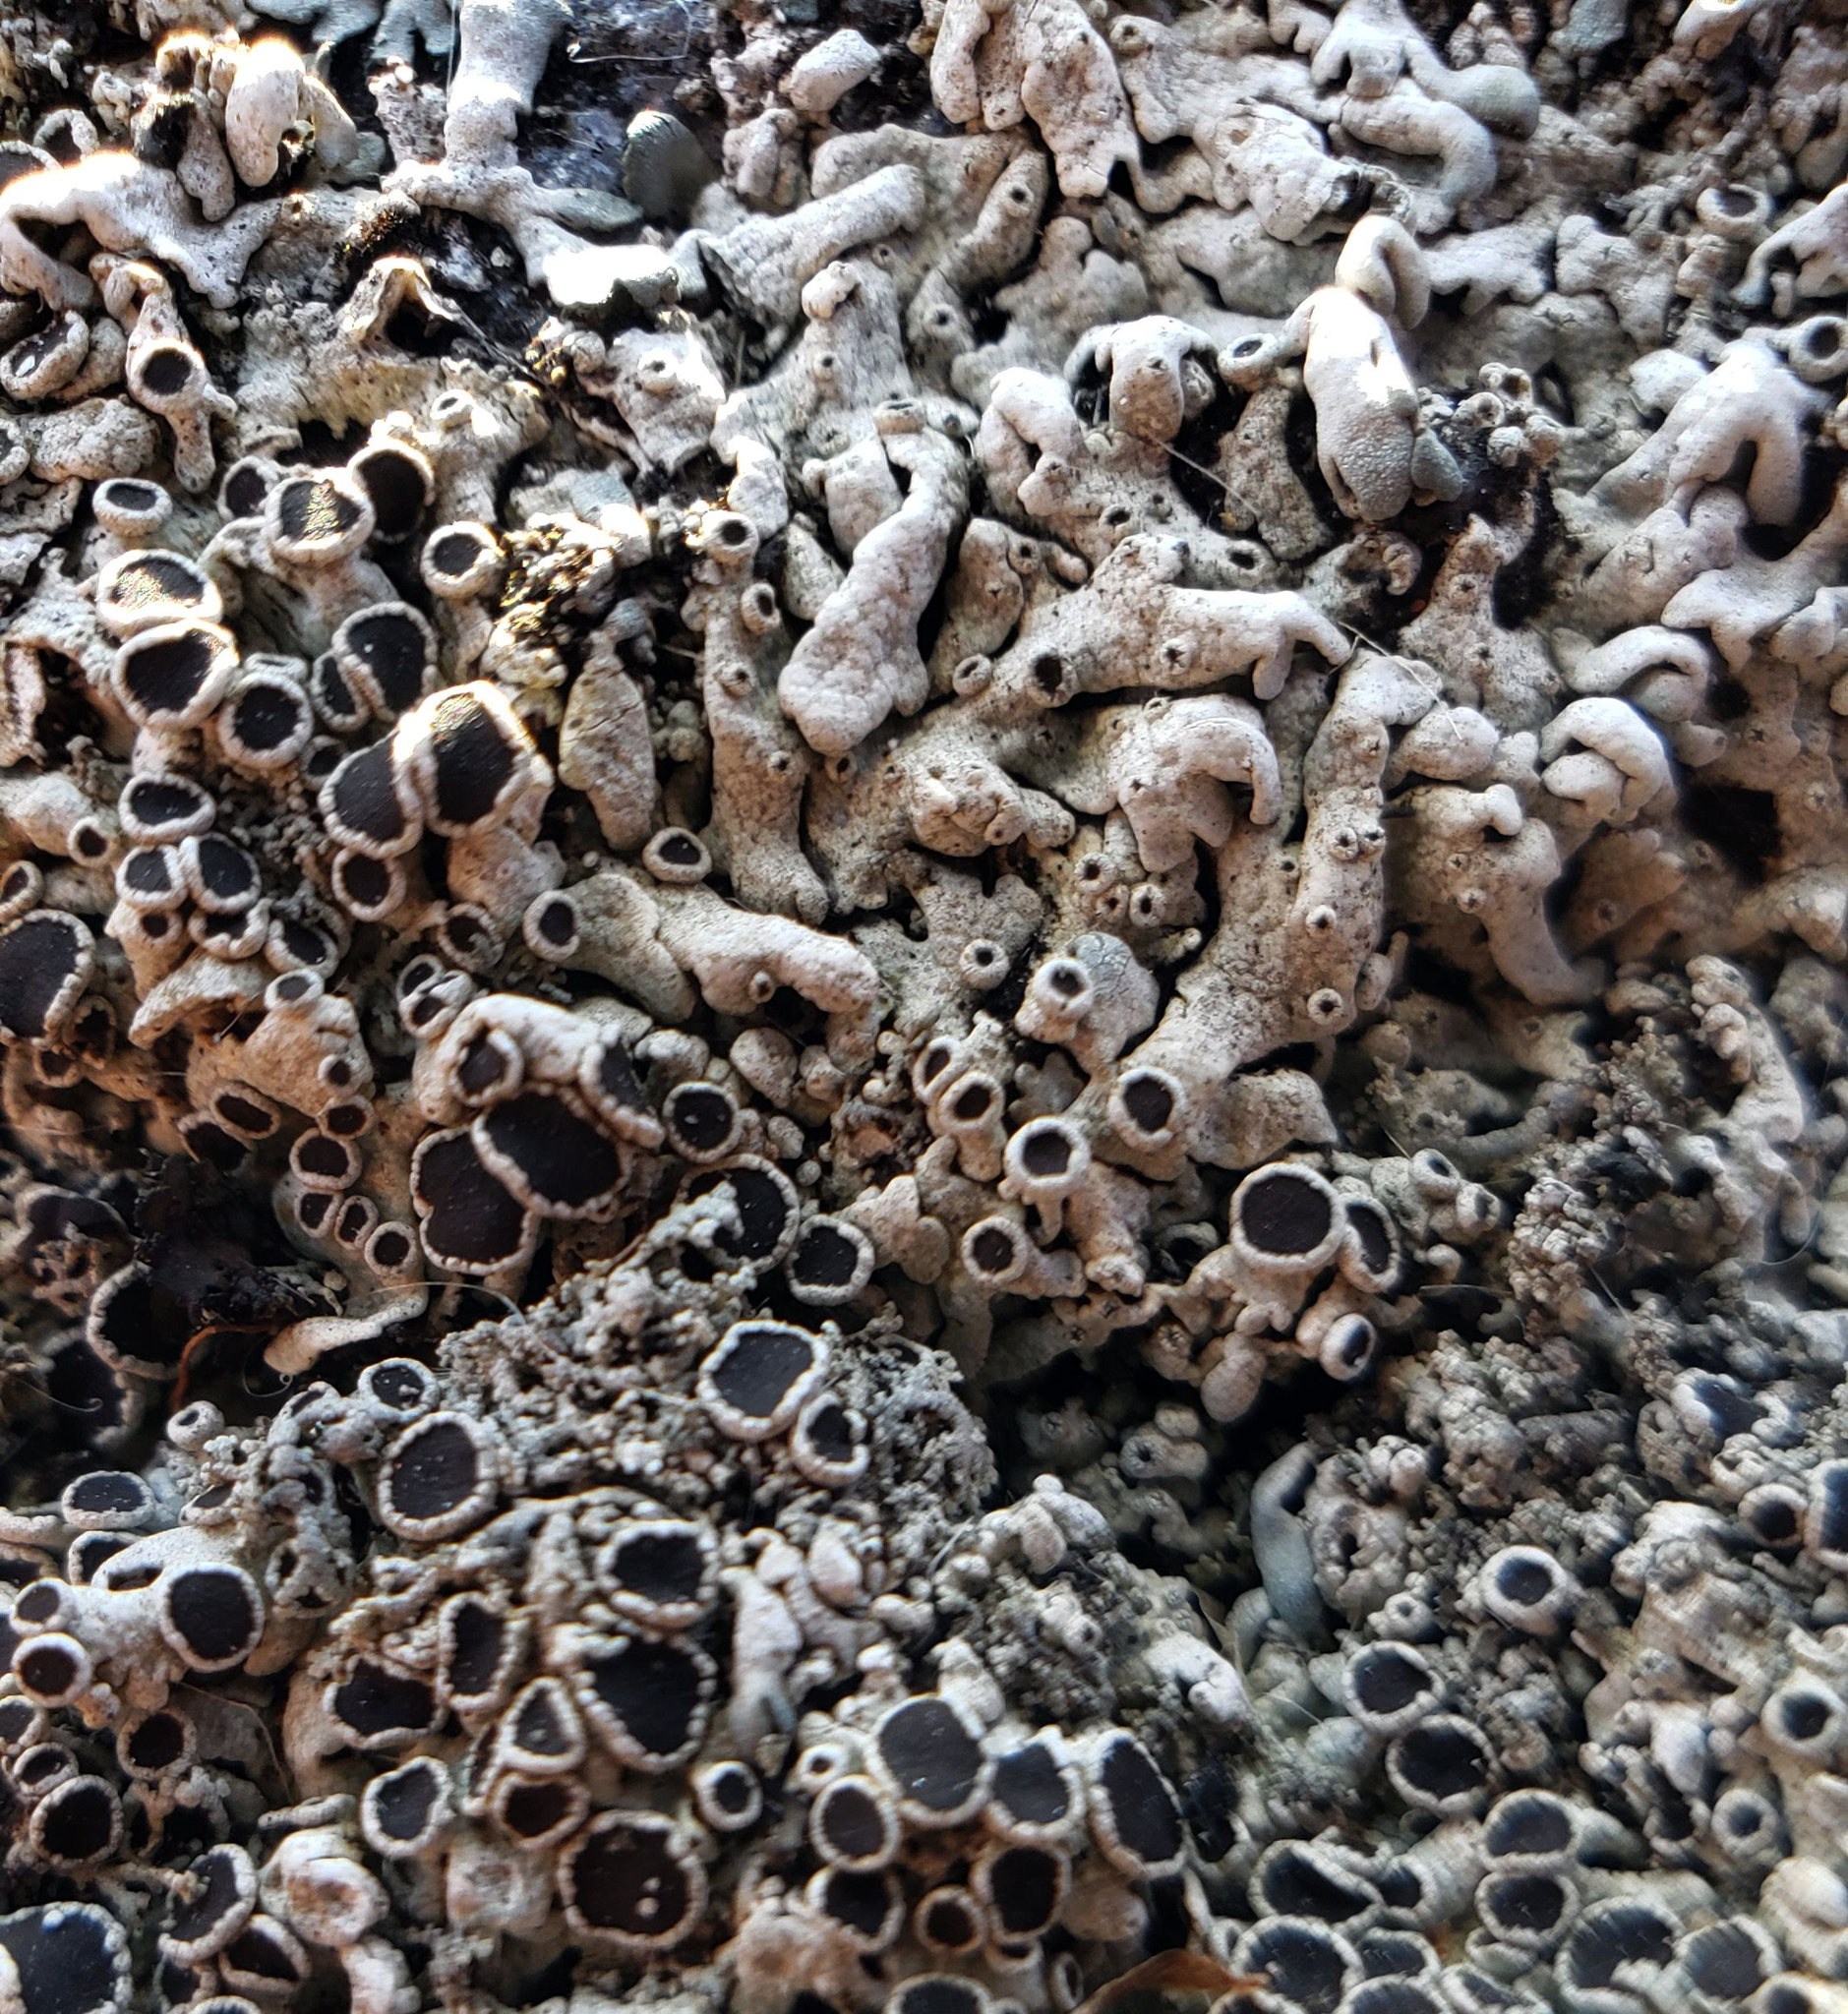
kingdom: Fungi
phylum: Ascomycota
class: Lecanoromycetes
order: Caliciales
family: Physciaceae
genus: Physcia
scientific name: Physcia phaea
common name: Black-eyed rosette lichen
